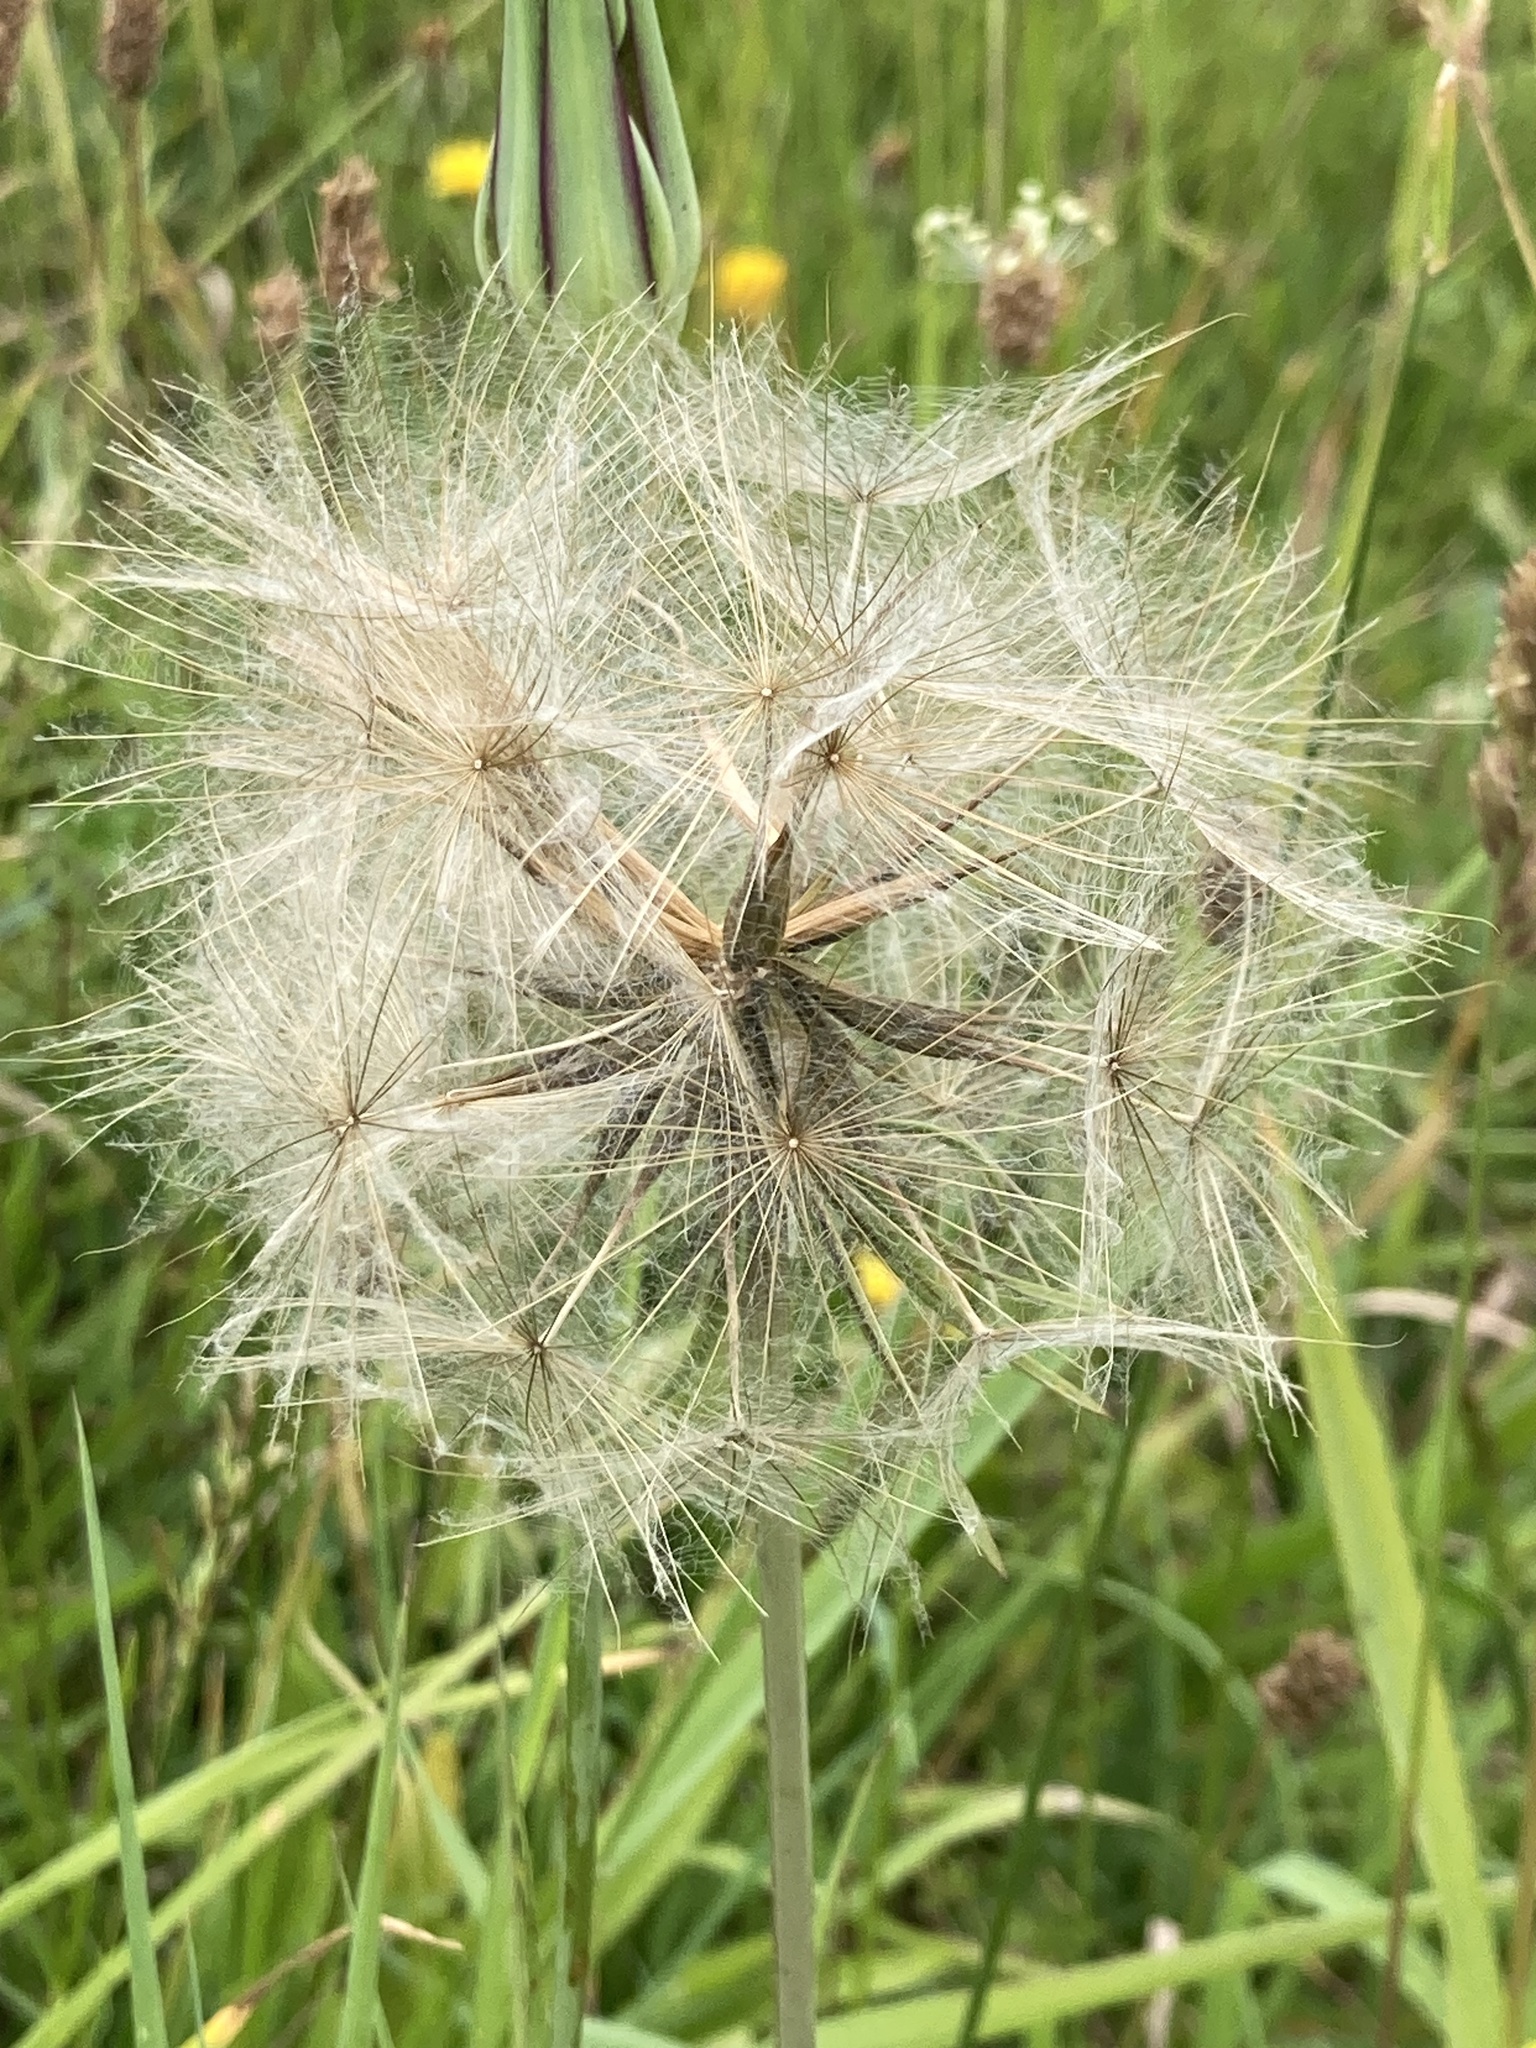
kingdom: Plantae
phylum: Tracheophyta
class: Magnoliopsida
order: Asterales
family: Asteraceae
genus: Tragopogon
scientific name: Tragopogon pratensis
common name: Goat's-beard
